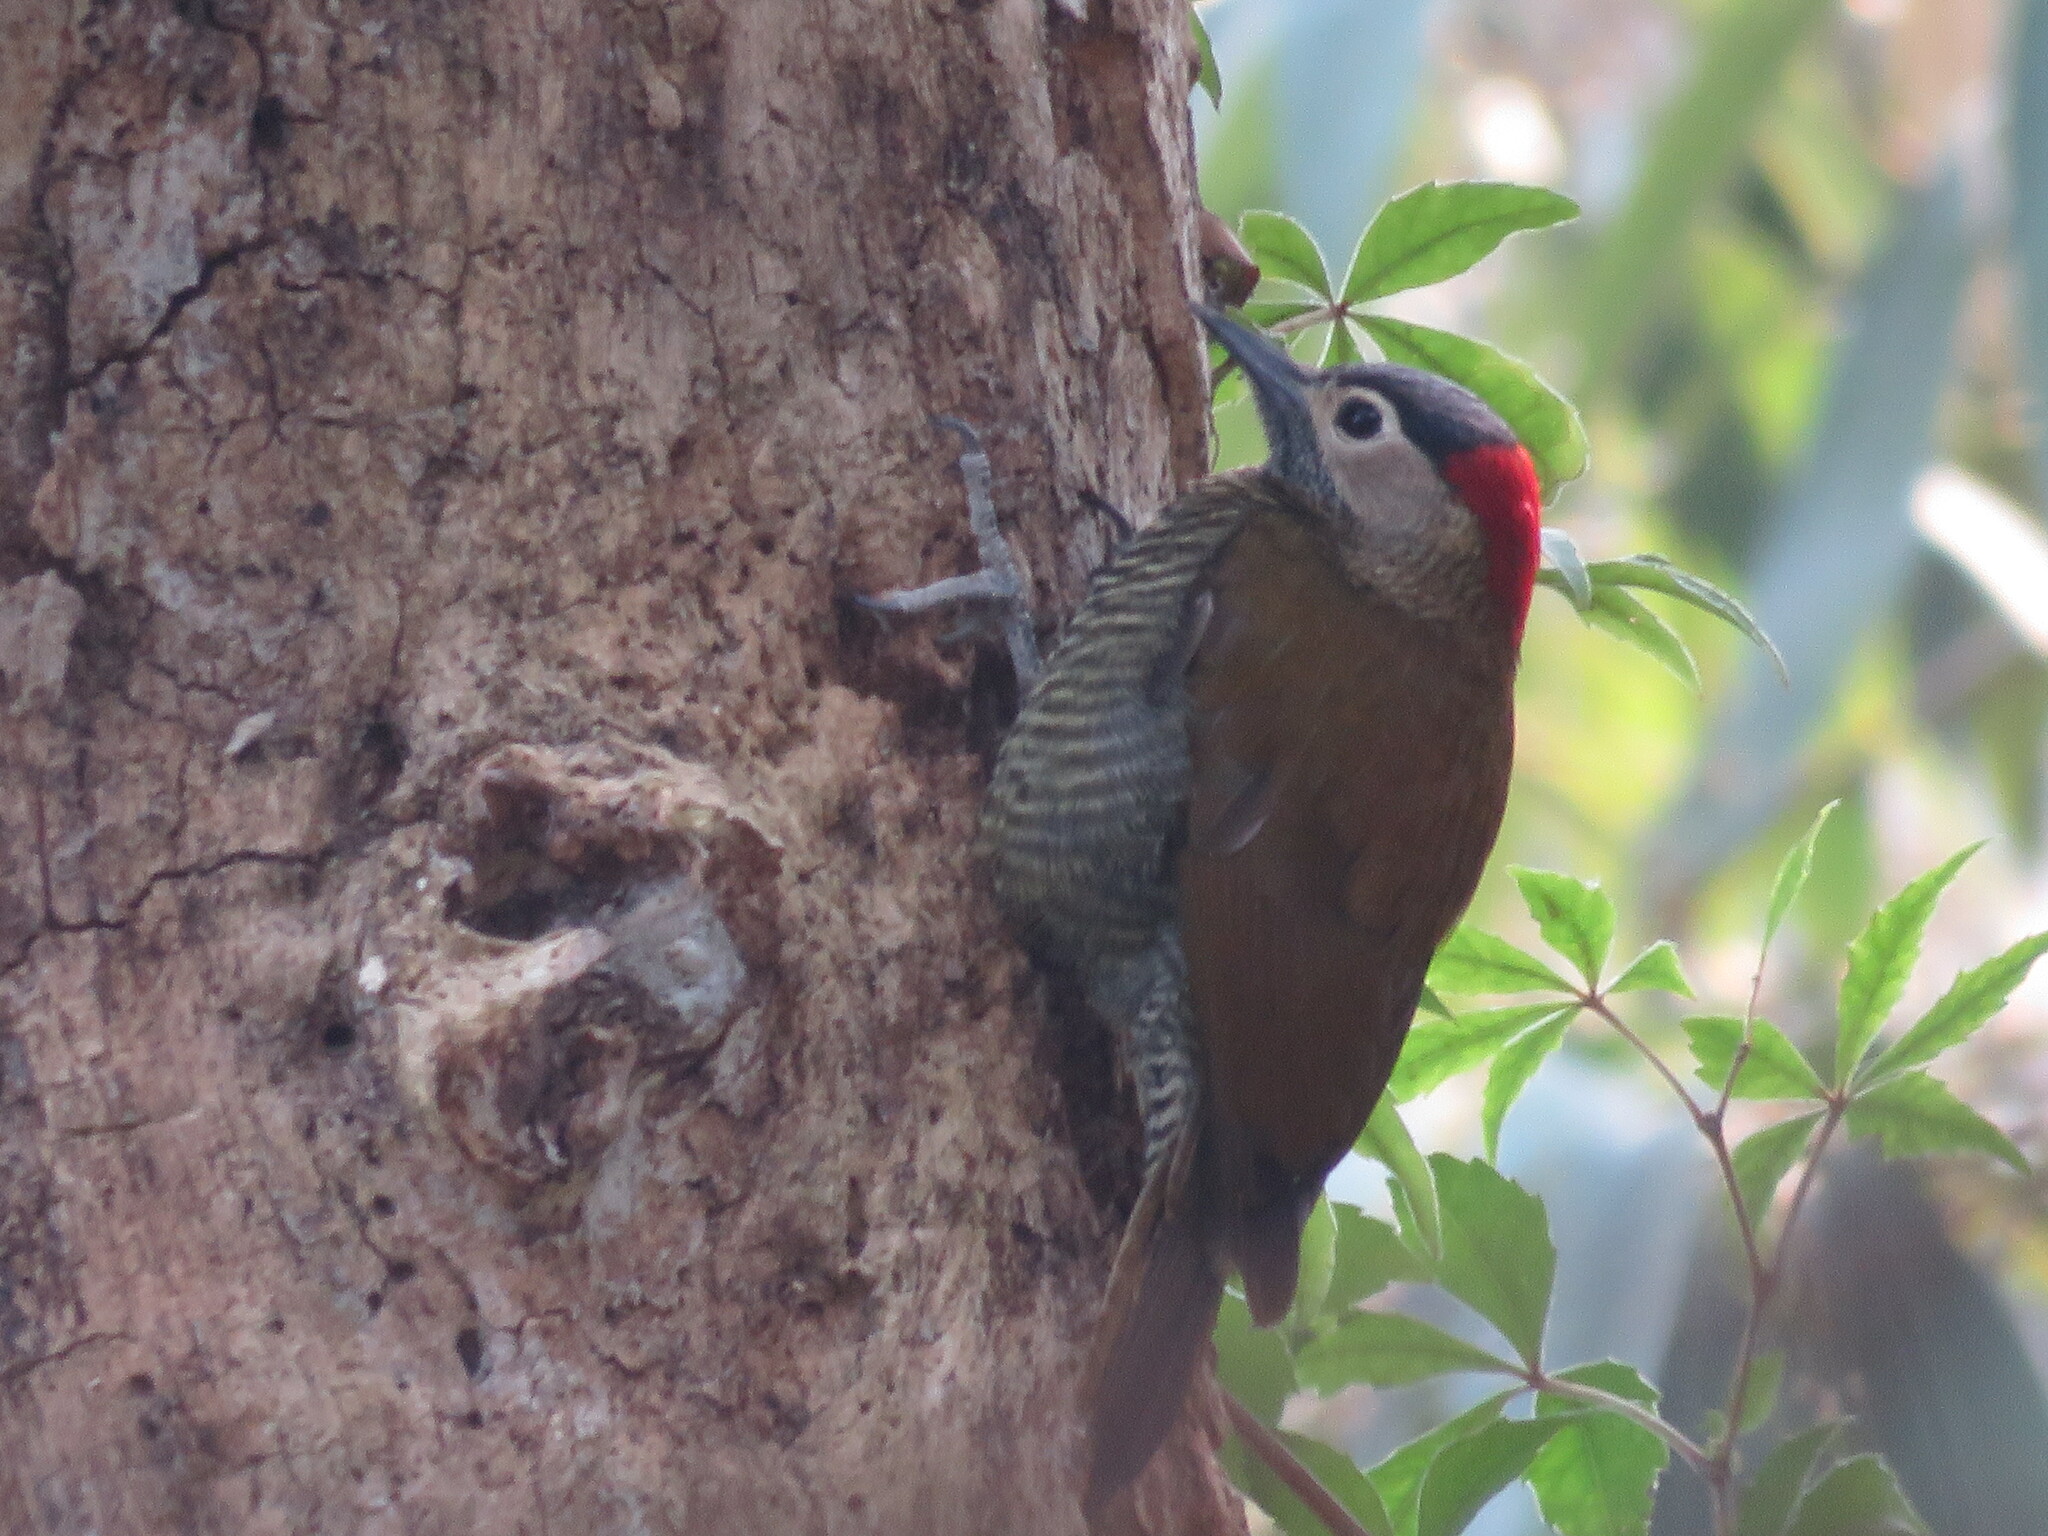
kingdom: Animalia
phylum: Chordata
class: Aves
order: Piciformes
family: Picidae
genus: Colaptes
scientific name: Colaptes rubiginosus
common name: Golden-olive woodpecker
